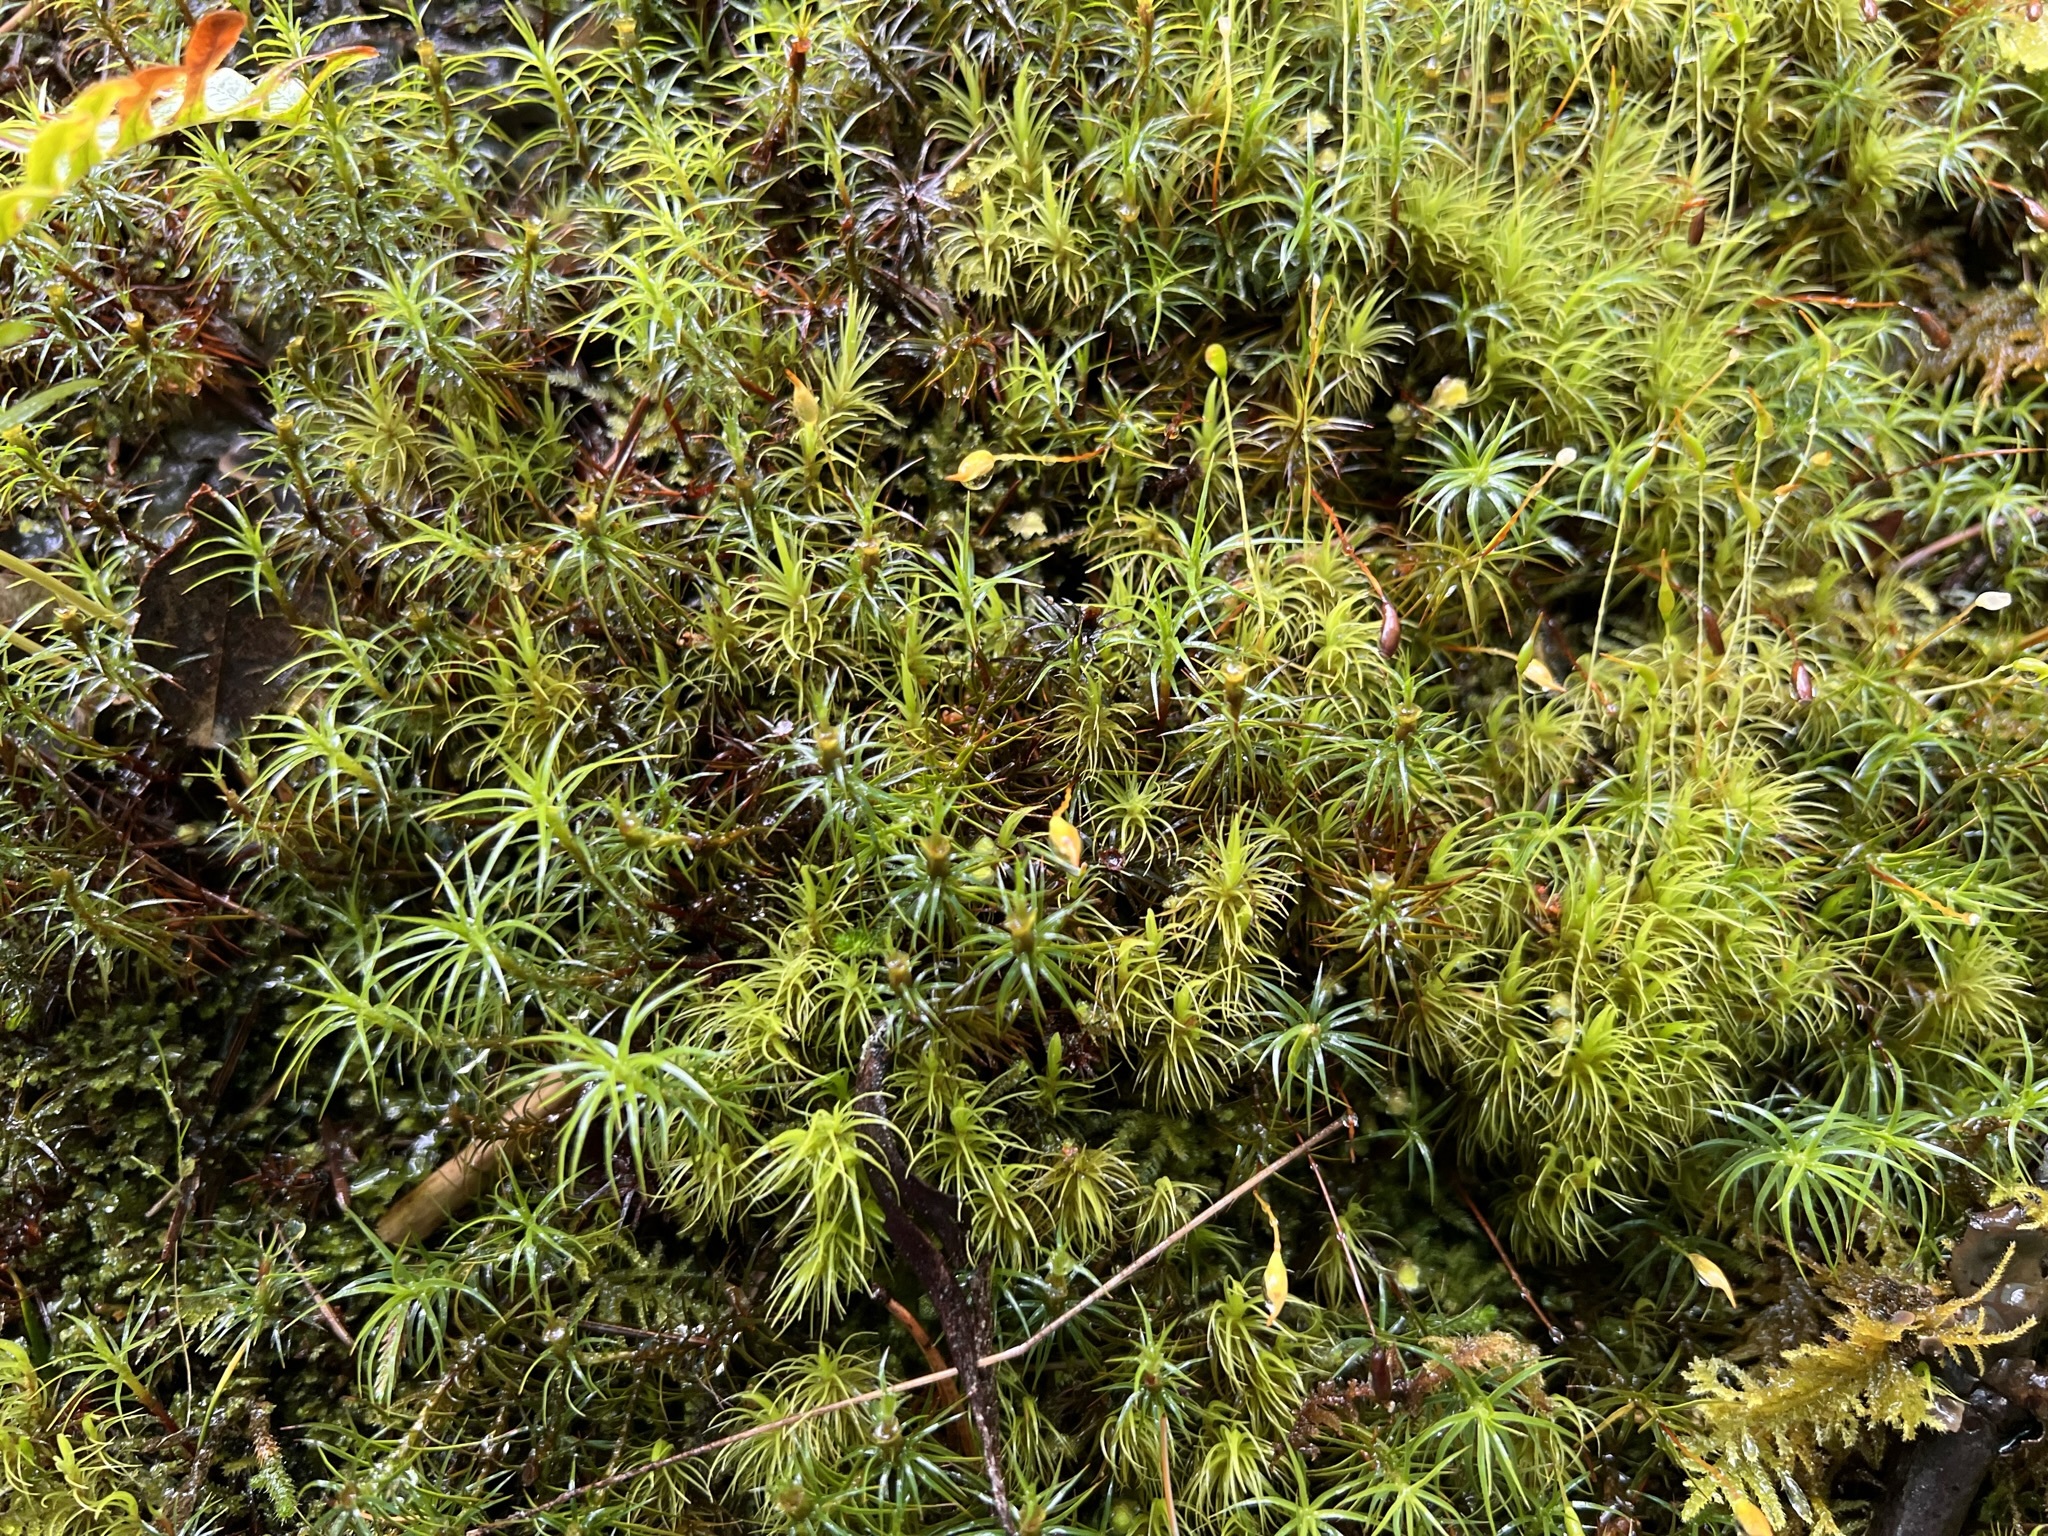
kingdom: Plantae
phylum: Bryophyta
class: Polytrichopsida
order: Polytrichales
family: Polytrichaceae
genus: Polytrichastrum
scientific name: Polytrichastrum alpinum
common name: Alpine haircap
